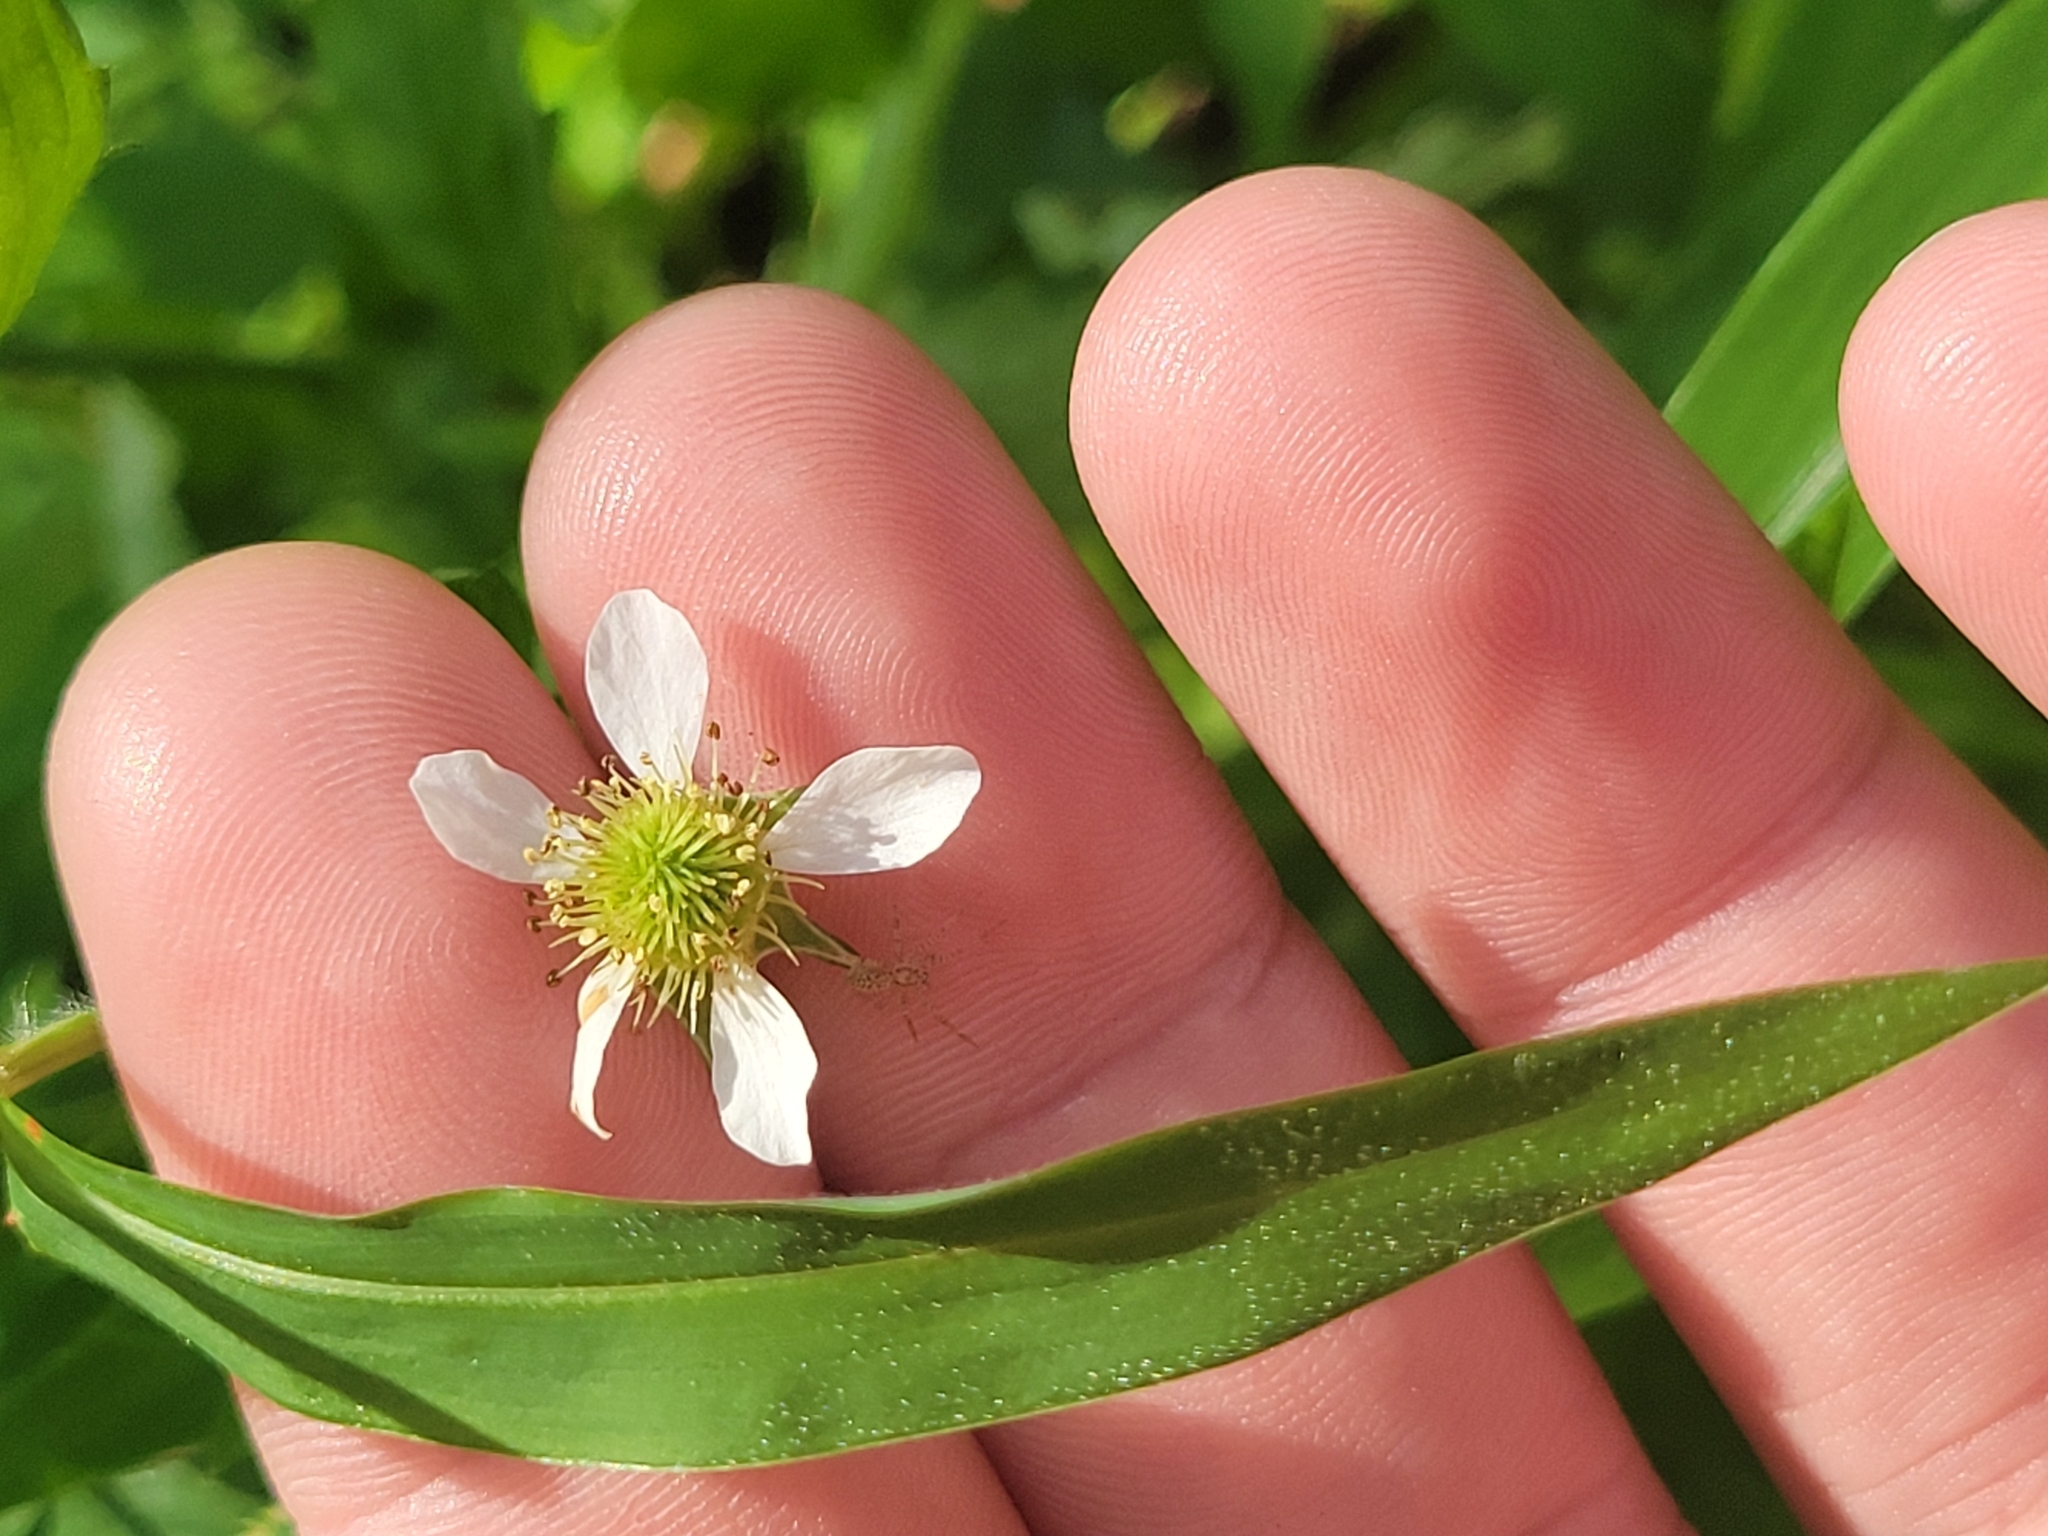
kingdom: Plantae
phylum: Tracheophyta
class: Magnoliopsida
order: Rosales
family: Rosaceae
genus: Geum
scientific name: Geum canadense
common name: White avens
